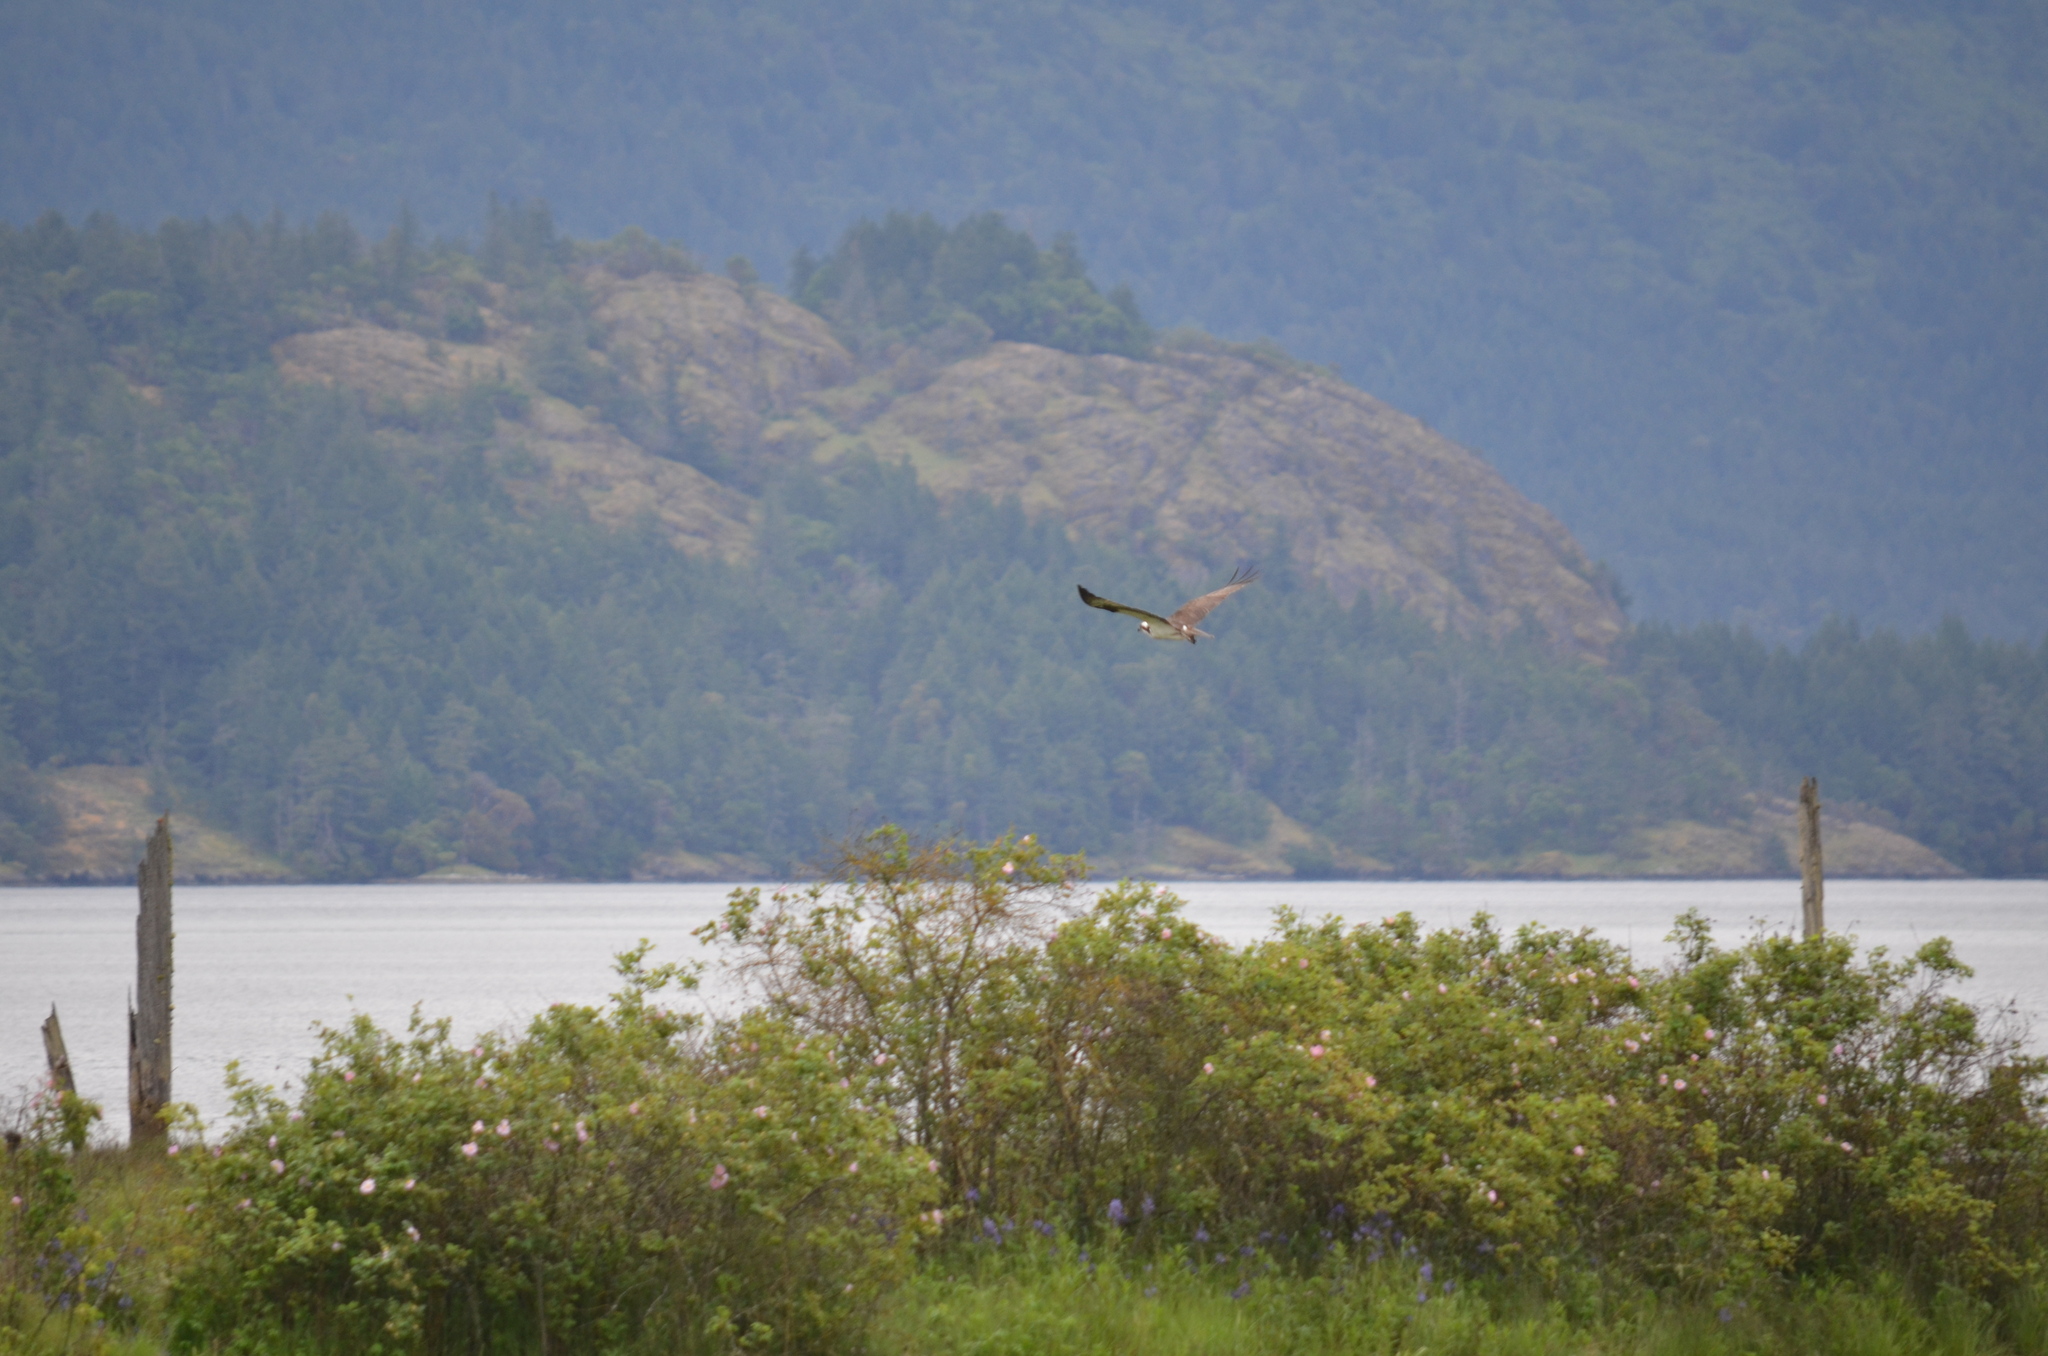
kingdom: Animalia
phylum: Chordata
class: Aves
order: Accipitriformes
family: Pandionidae
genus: Pandion
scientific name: Pandion haliaetus
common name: Osprey
